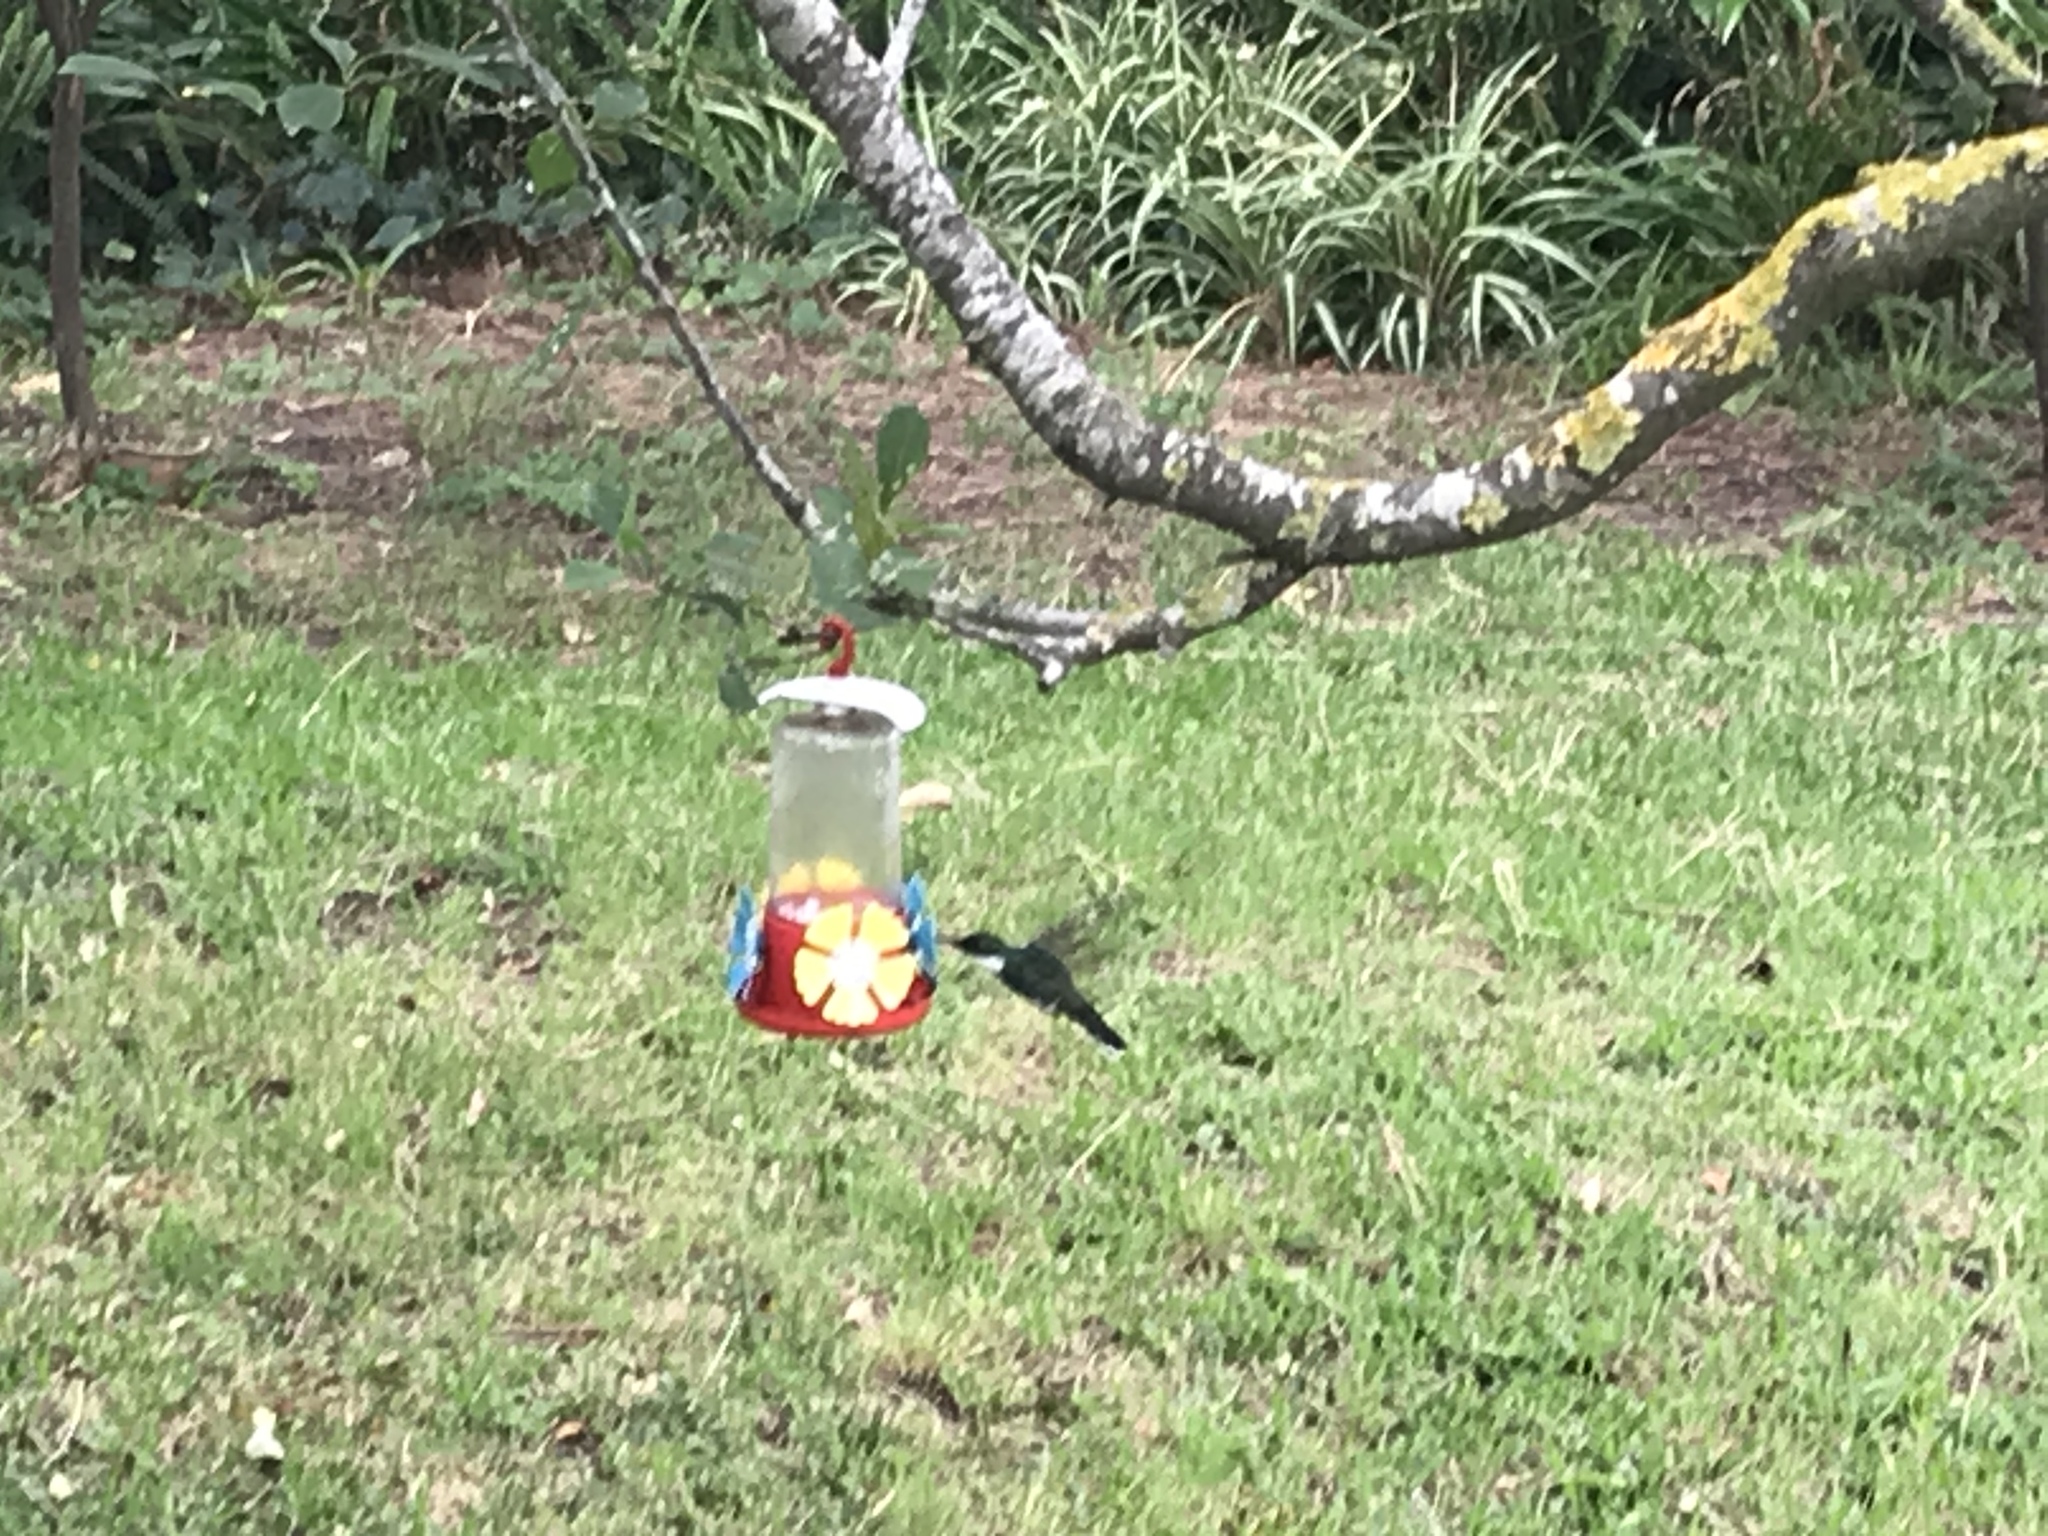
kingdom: Animalia
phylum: Chordata
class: Aves
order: Apodiformes
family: Trochilidae
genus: Leucochloris
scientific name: Leucochloris albicollis
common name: White-throated hummingbird
